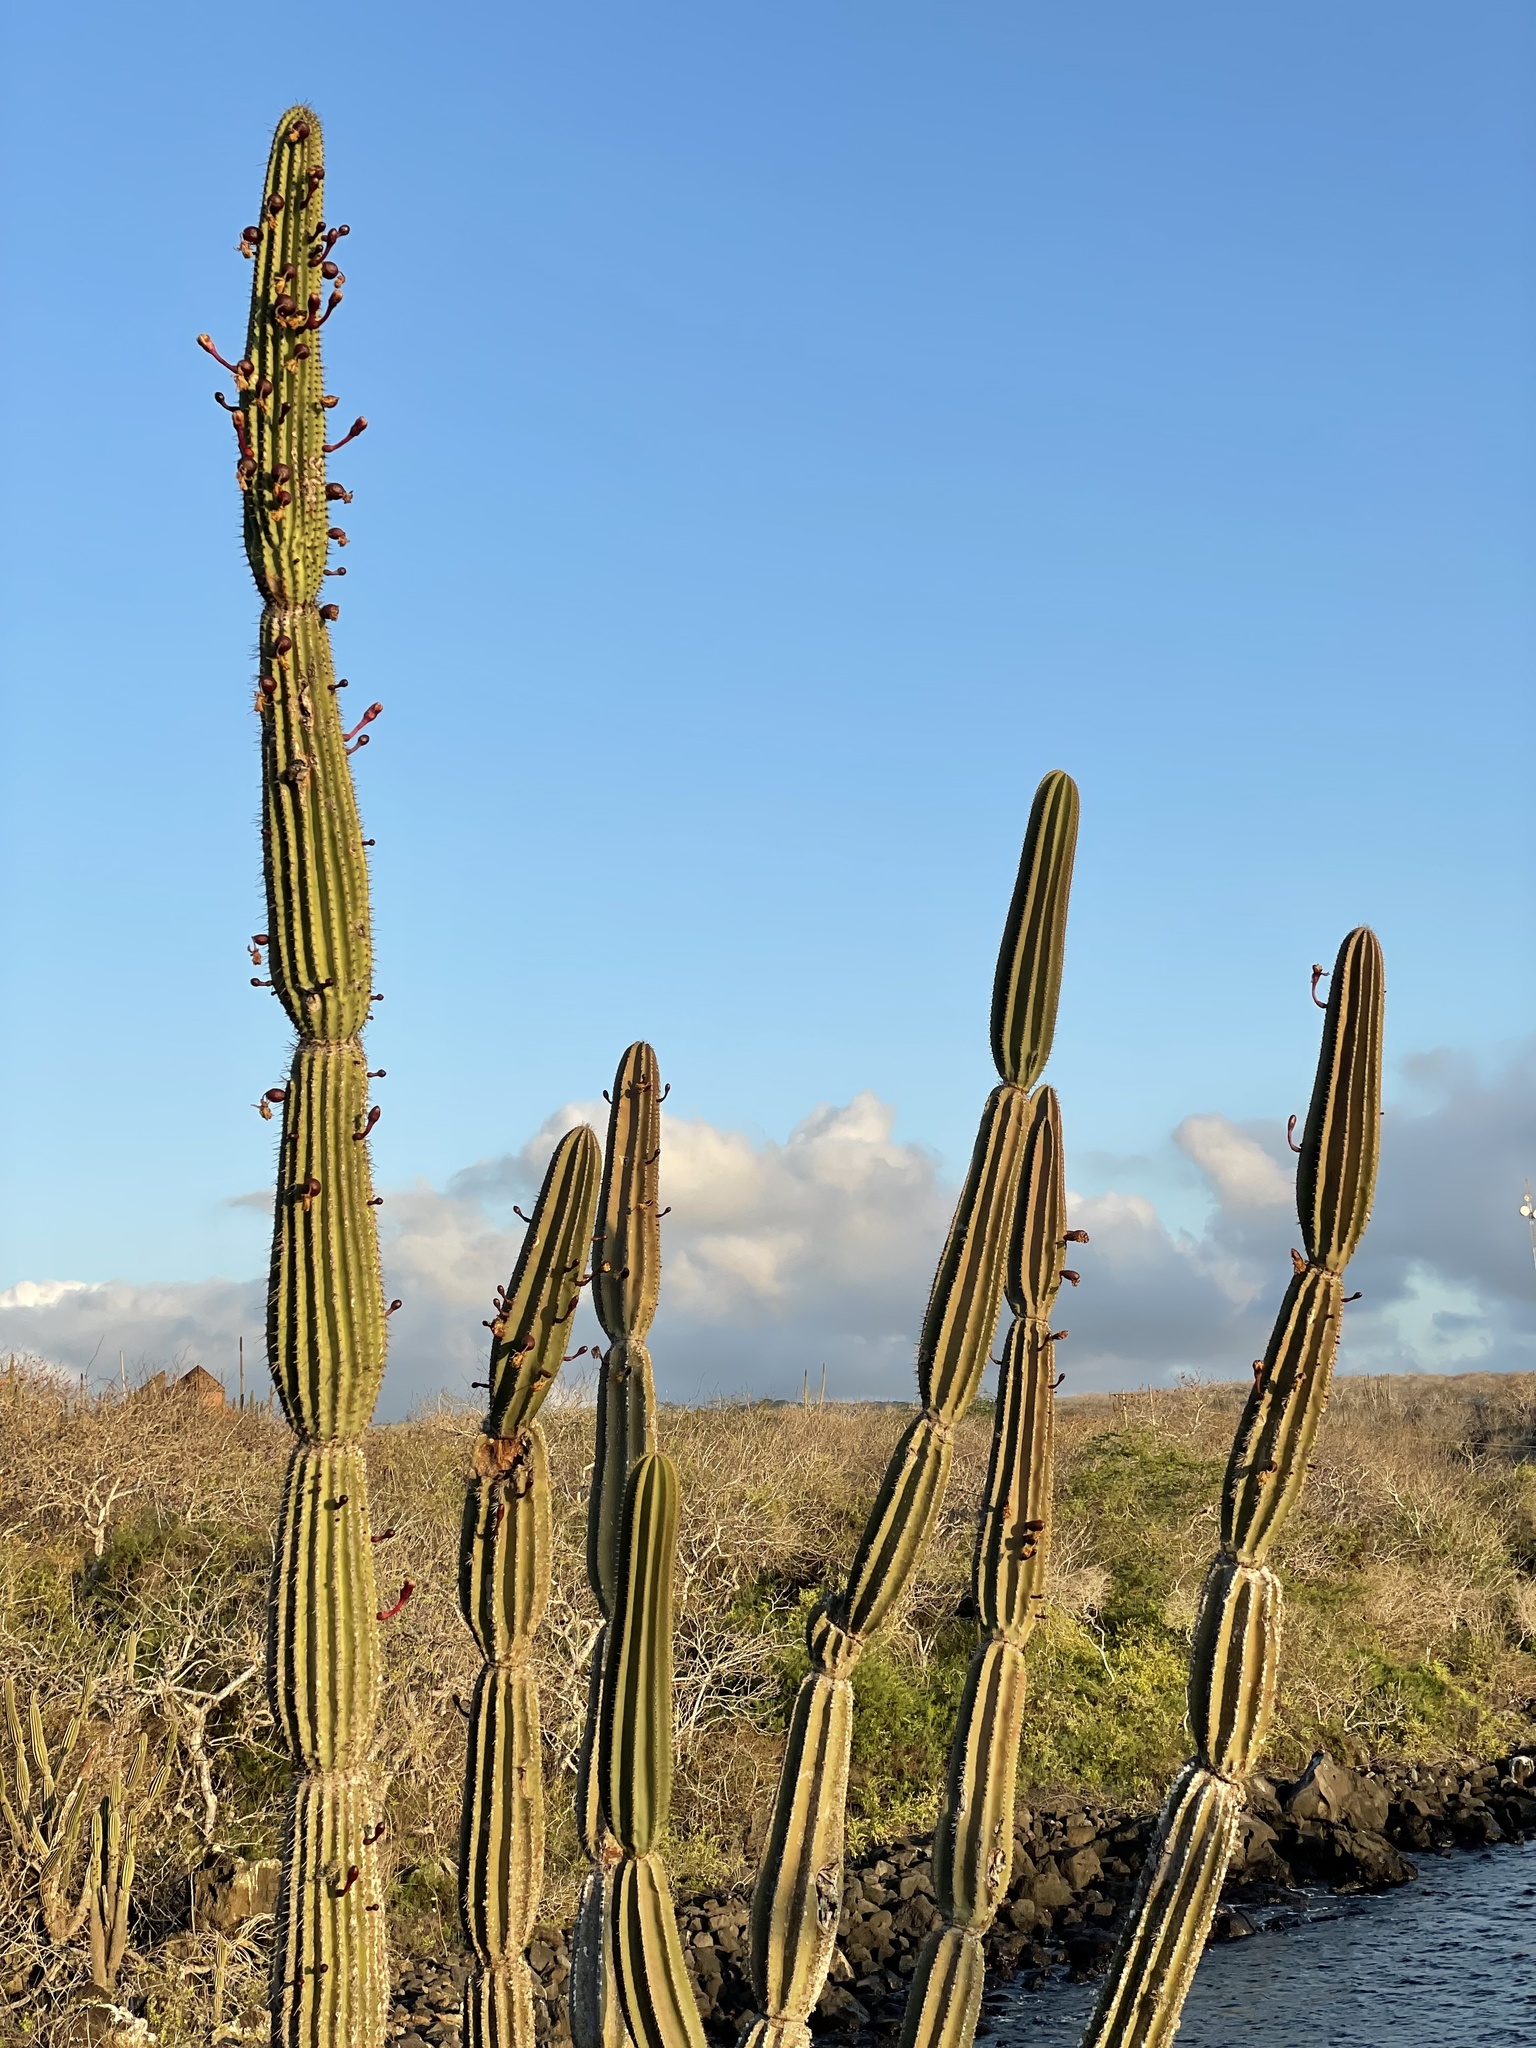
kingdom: Plantae
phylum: Tracheophyta
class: Magnoliopsida
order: Caryophyllales
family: Cactaceae
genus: Jasminocereus
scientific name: Jasminocereus thouarsii
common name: Candelabra cactus
